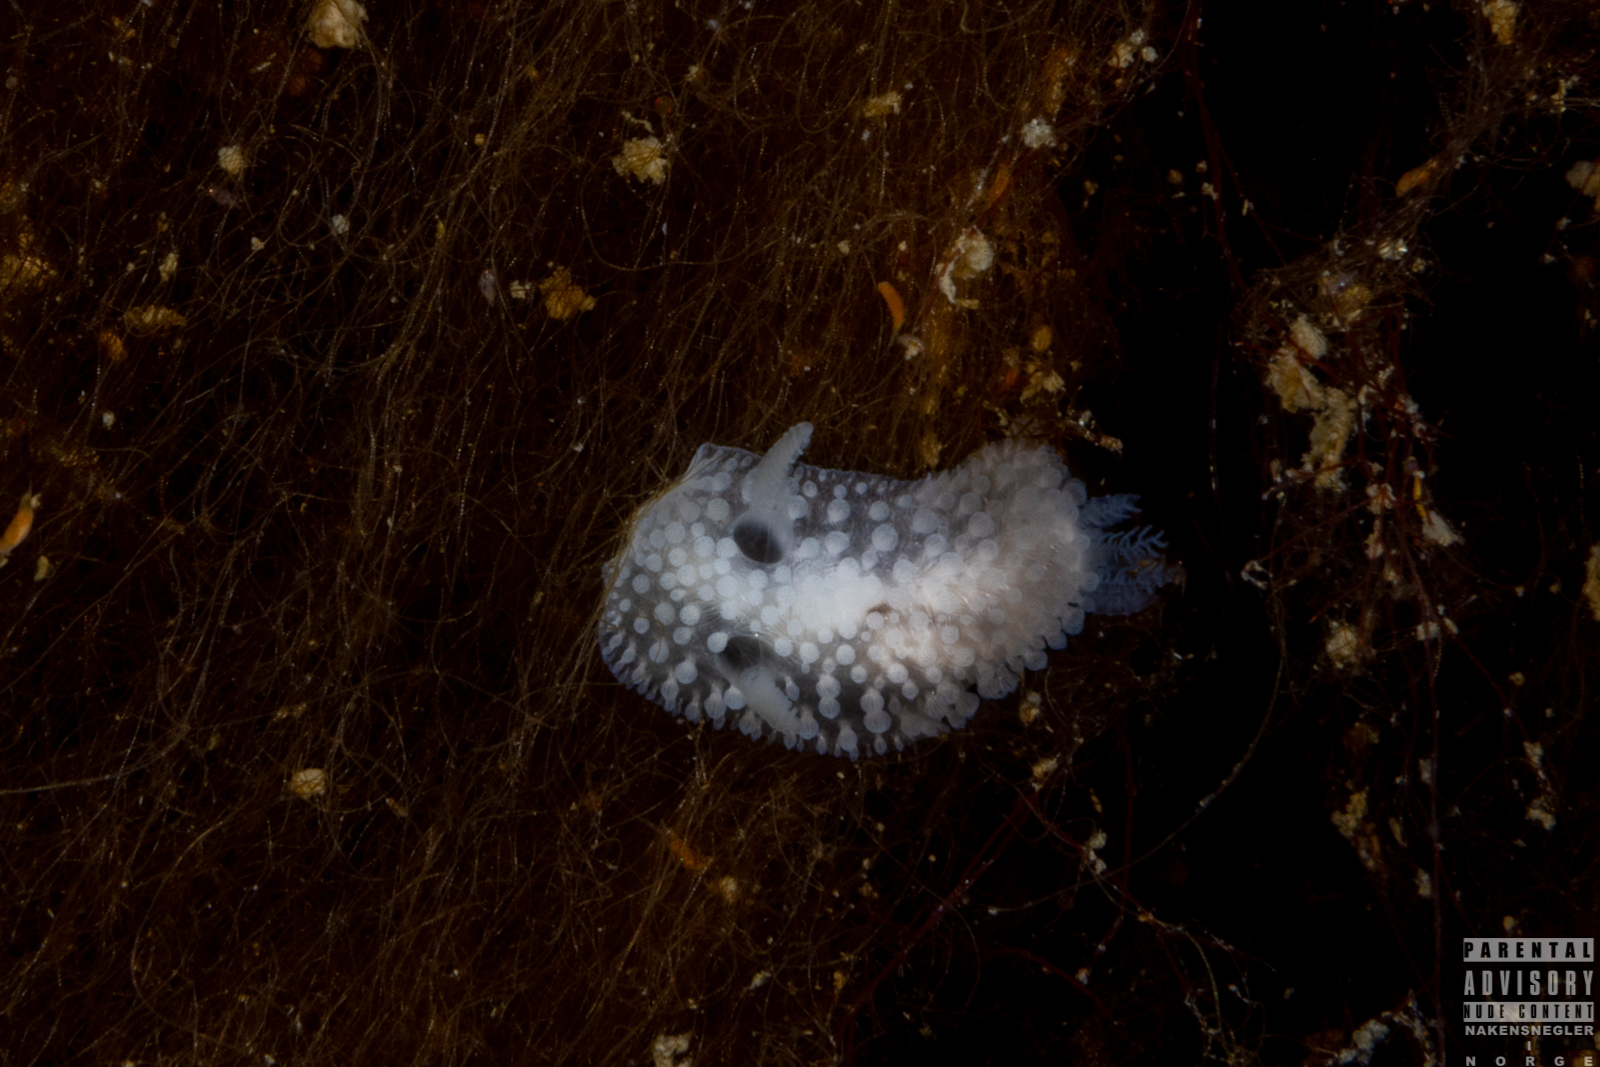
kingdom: Animalia
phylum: Mollusca
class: Gastropoda
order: Nudibranchia
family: Onchidorididae
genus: Onchidoris
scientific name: Onchidoris muricata
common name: Rough doris
